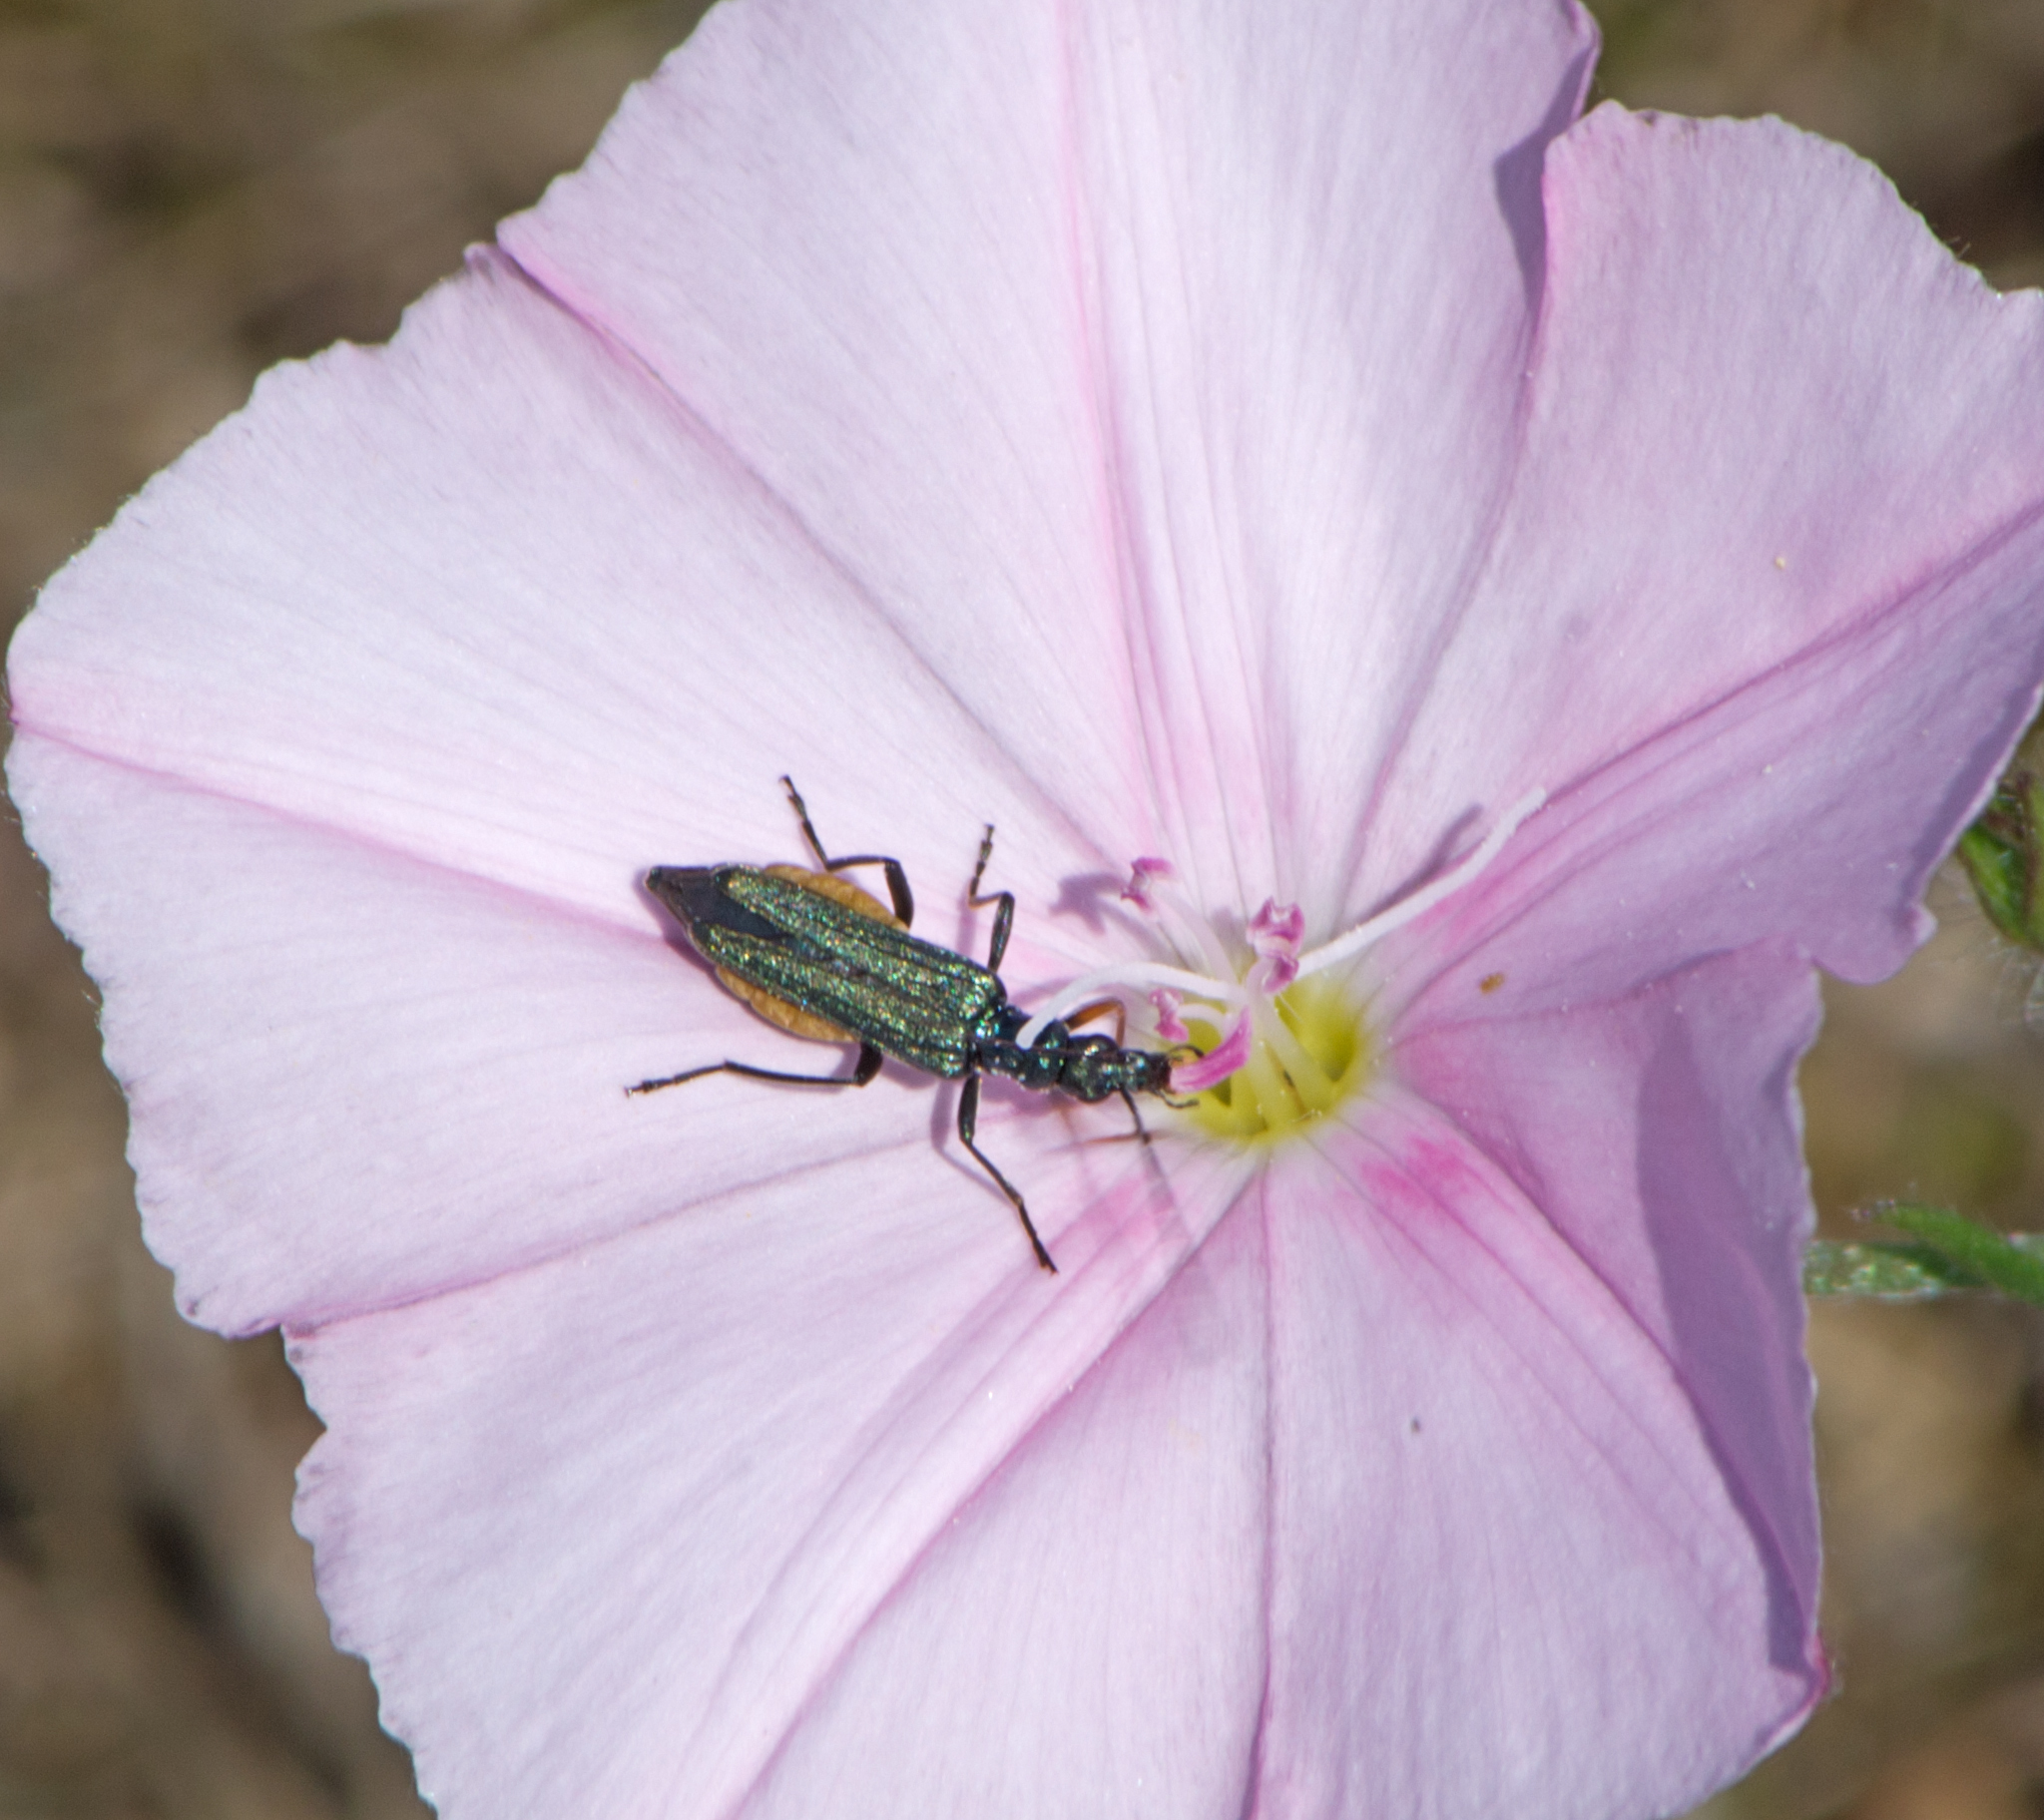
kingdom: Animalia
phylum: Arthropoda
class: Insecta
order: Coleoptera
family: Oedemeridae
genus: Oedemera
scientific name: Oedemera flavipes
